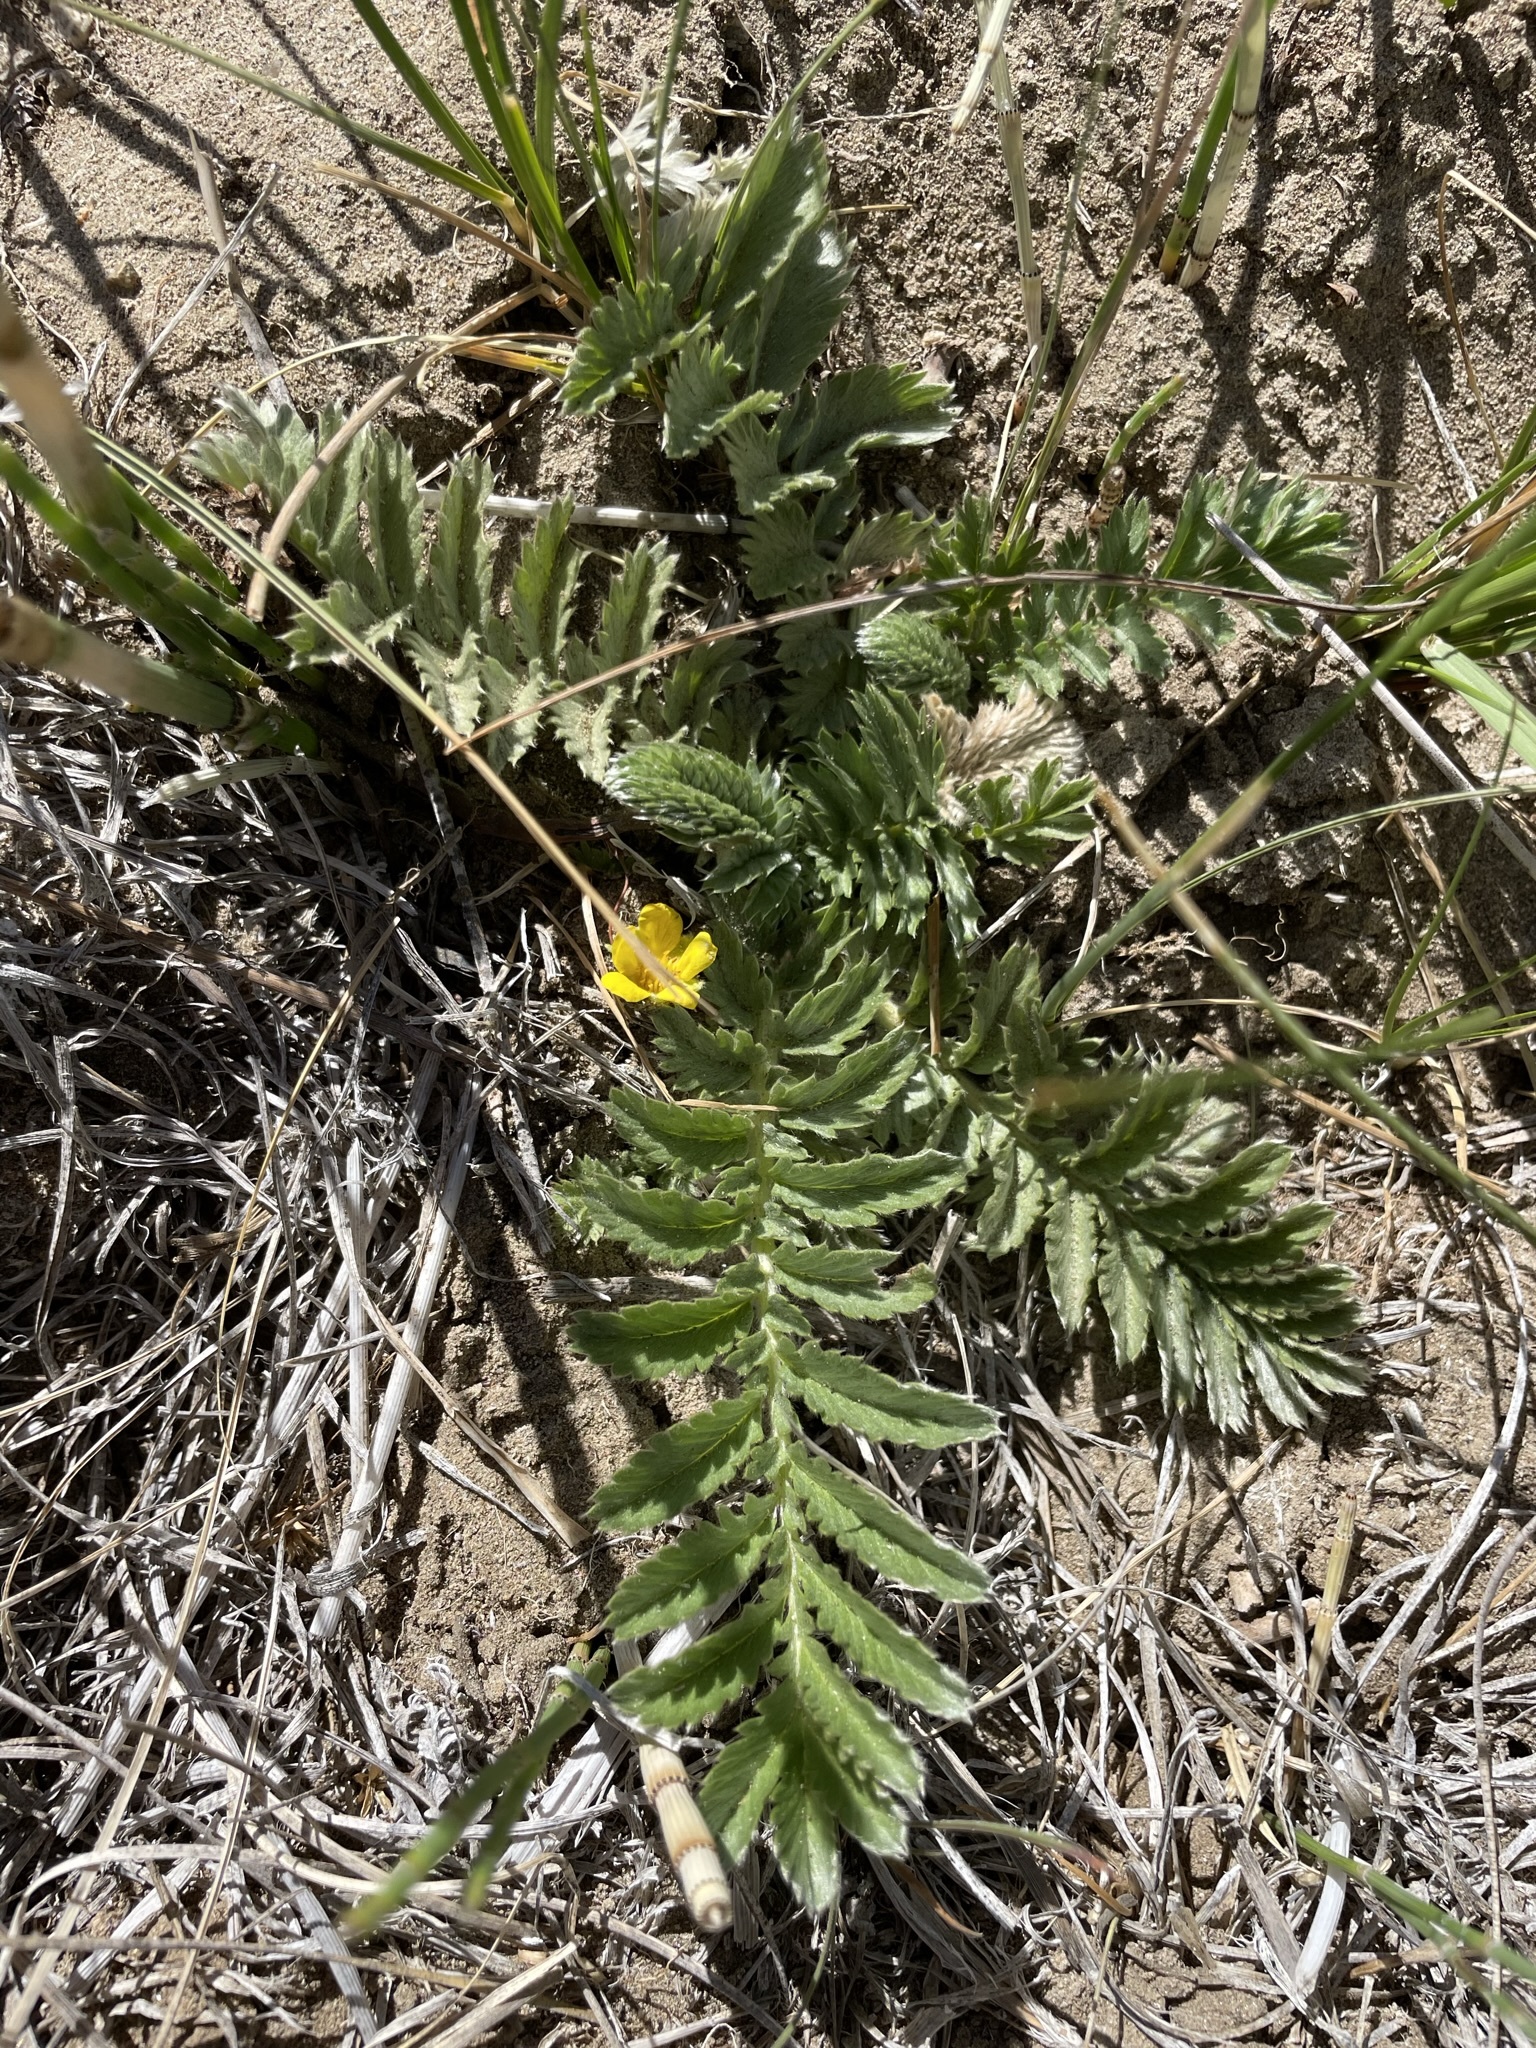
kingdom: Plantae
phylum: Tracheophyta
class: Magnoliopsida
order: Rosales
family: Rosaceae
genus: Argentina
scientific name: Argentina anserina
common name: Common silverweed
